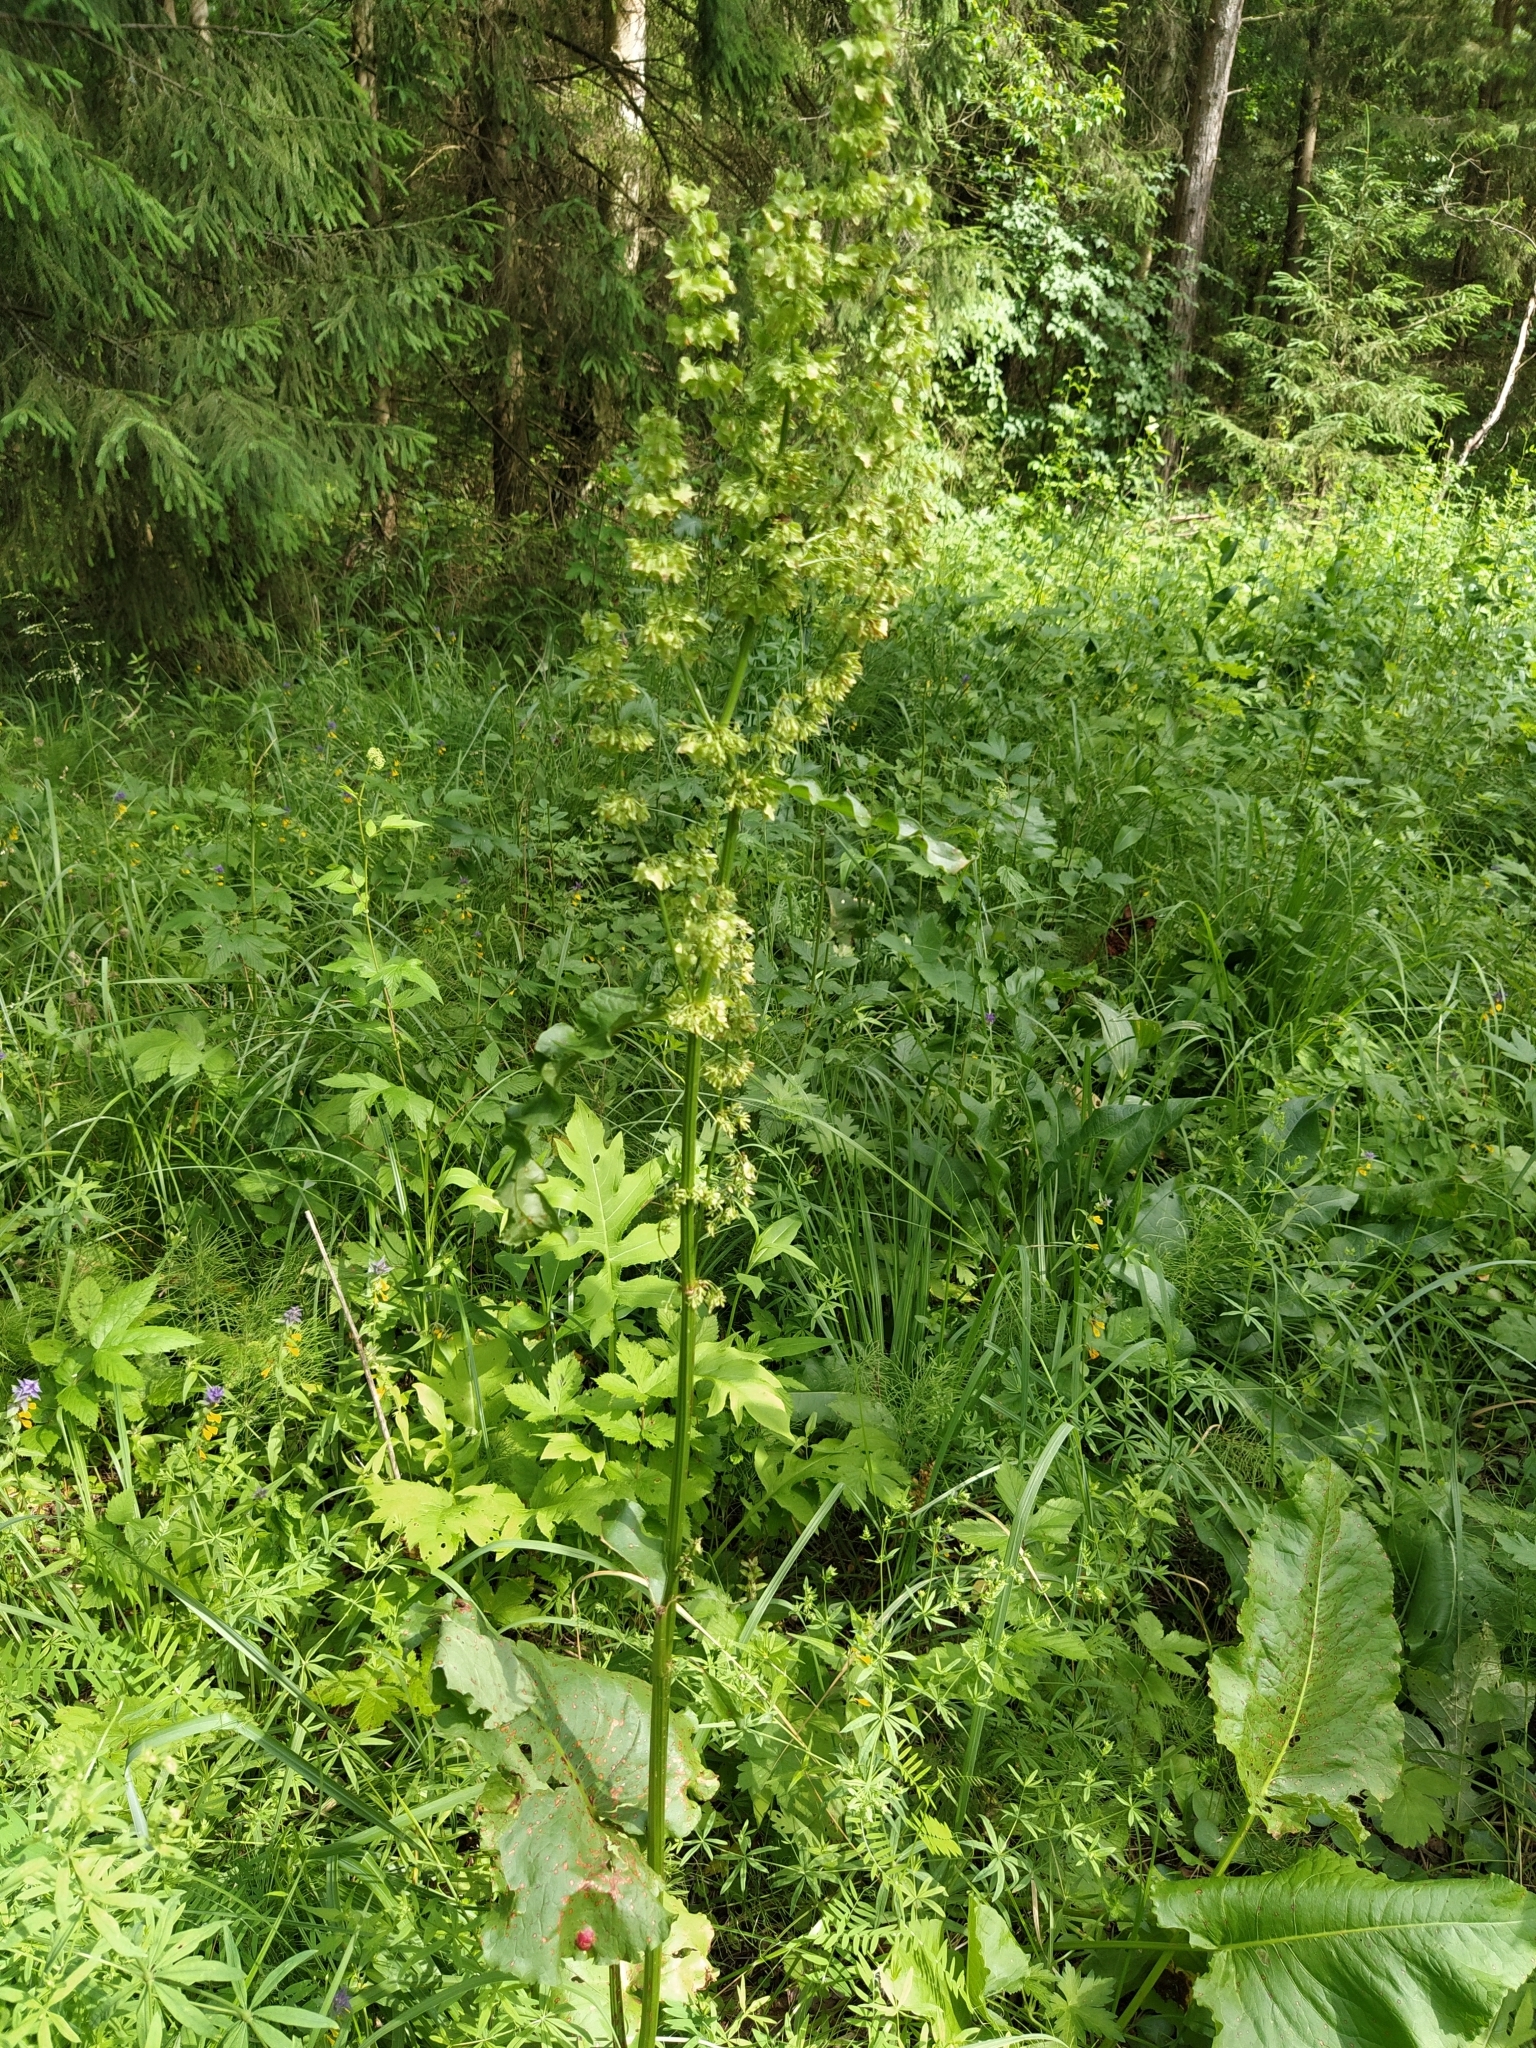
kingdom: Plantae
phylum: Tracheophyta
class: Magnoliopsida
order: Caryophyllales
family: Polygonaceae
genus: Rumex
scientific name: Rumex confertus
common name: Russian dock
